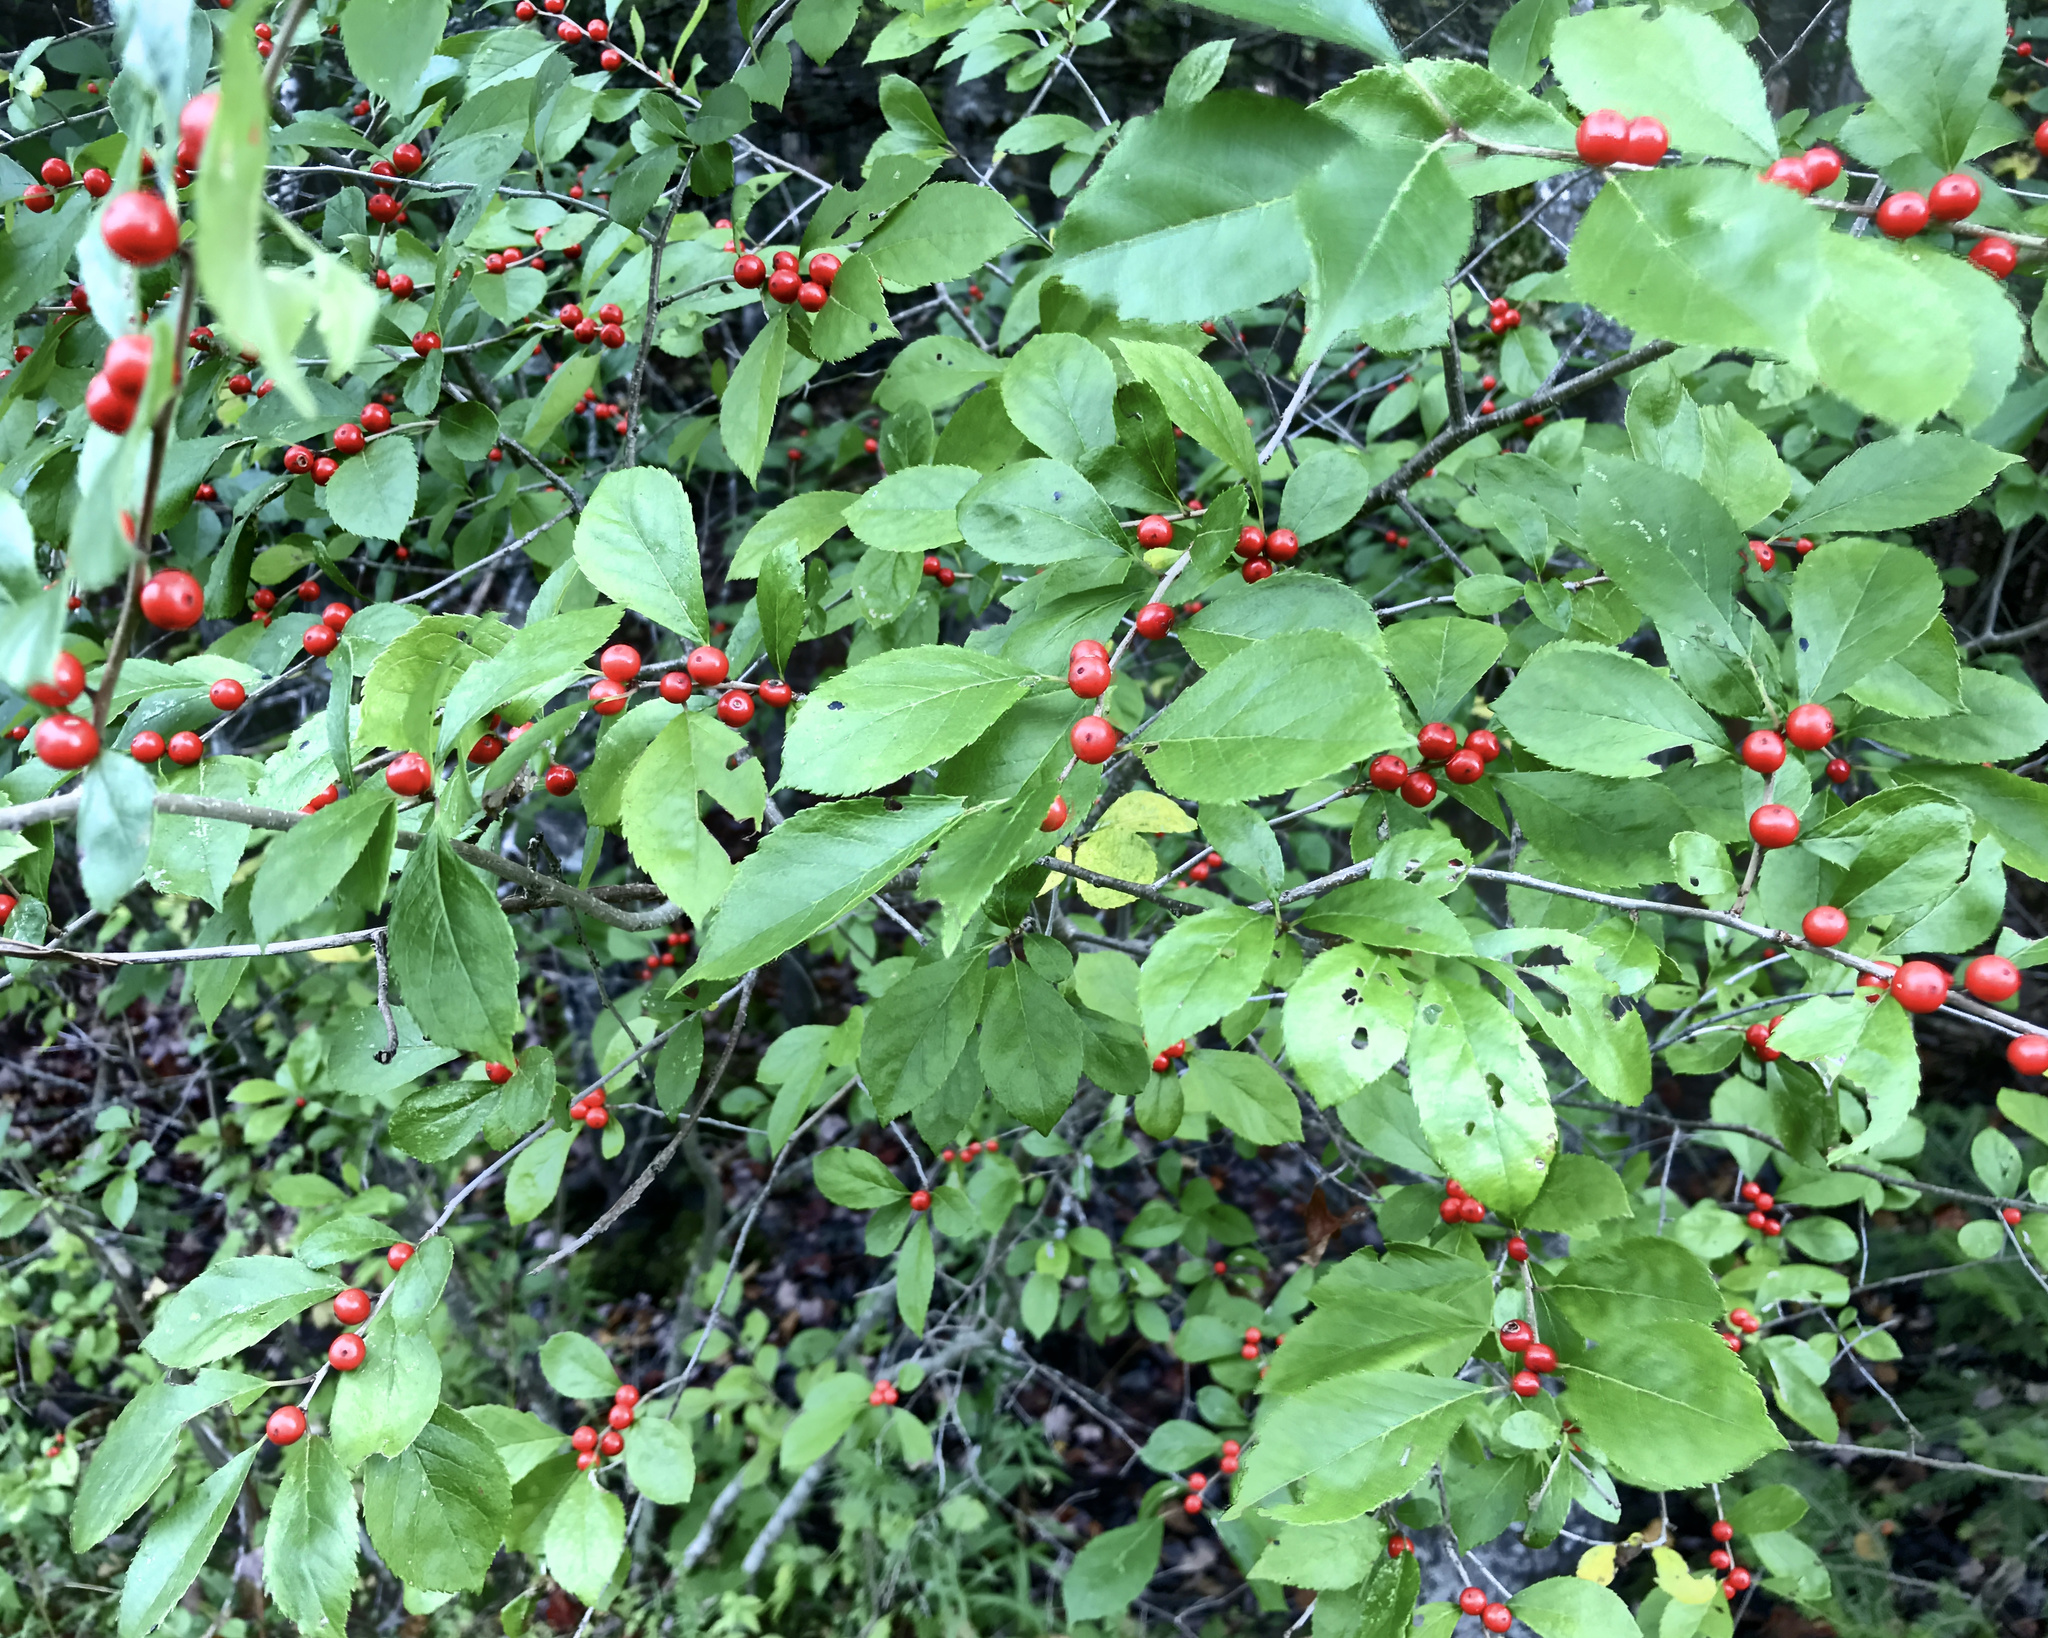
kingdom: Plantae
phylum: Tracheophyta
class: Magnoliopsida
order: Aquifoliales
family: Aquifoliaceae
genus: Ilex
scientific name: Ilex verticillata
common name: Virginia winterberry
